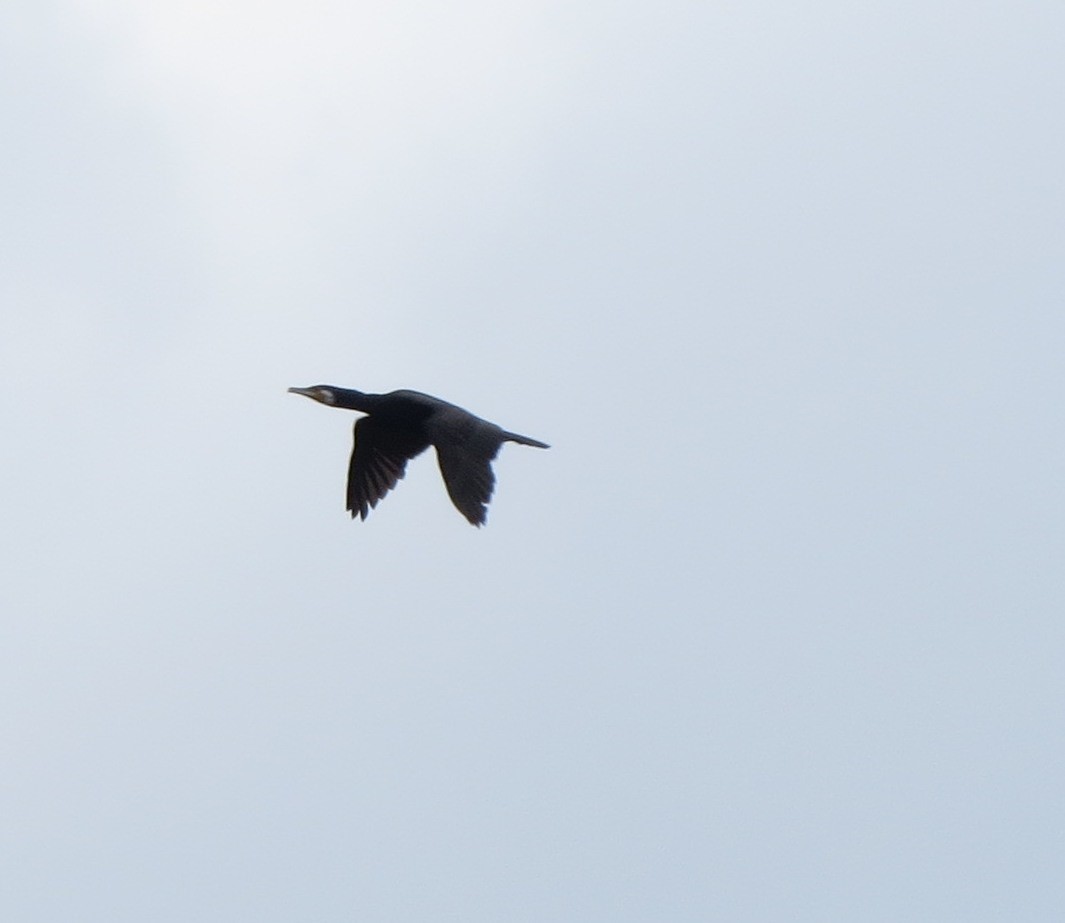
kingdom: Animalia
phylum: Chordata
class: Aves
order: Suliformes
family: Phalacrocoracidae
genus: Phalacrocorax
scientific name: Phalacrocorax carbo
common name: Great cormorant
